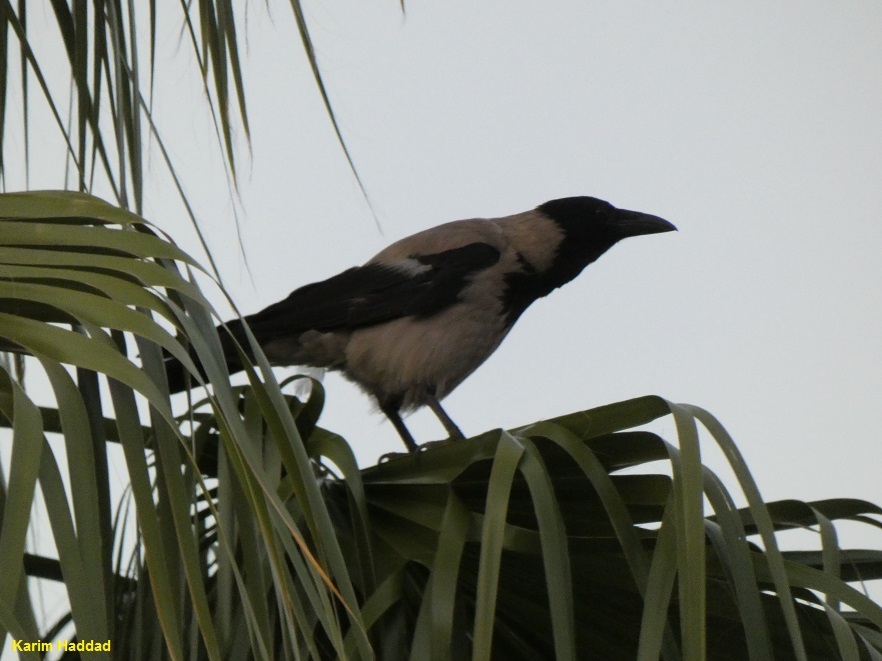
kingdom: Animalia
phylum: Chordata
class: Aves
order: Passeriformes
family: Corvidae
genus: Corvus
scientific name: Corvus cornix
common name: Hooded crow
